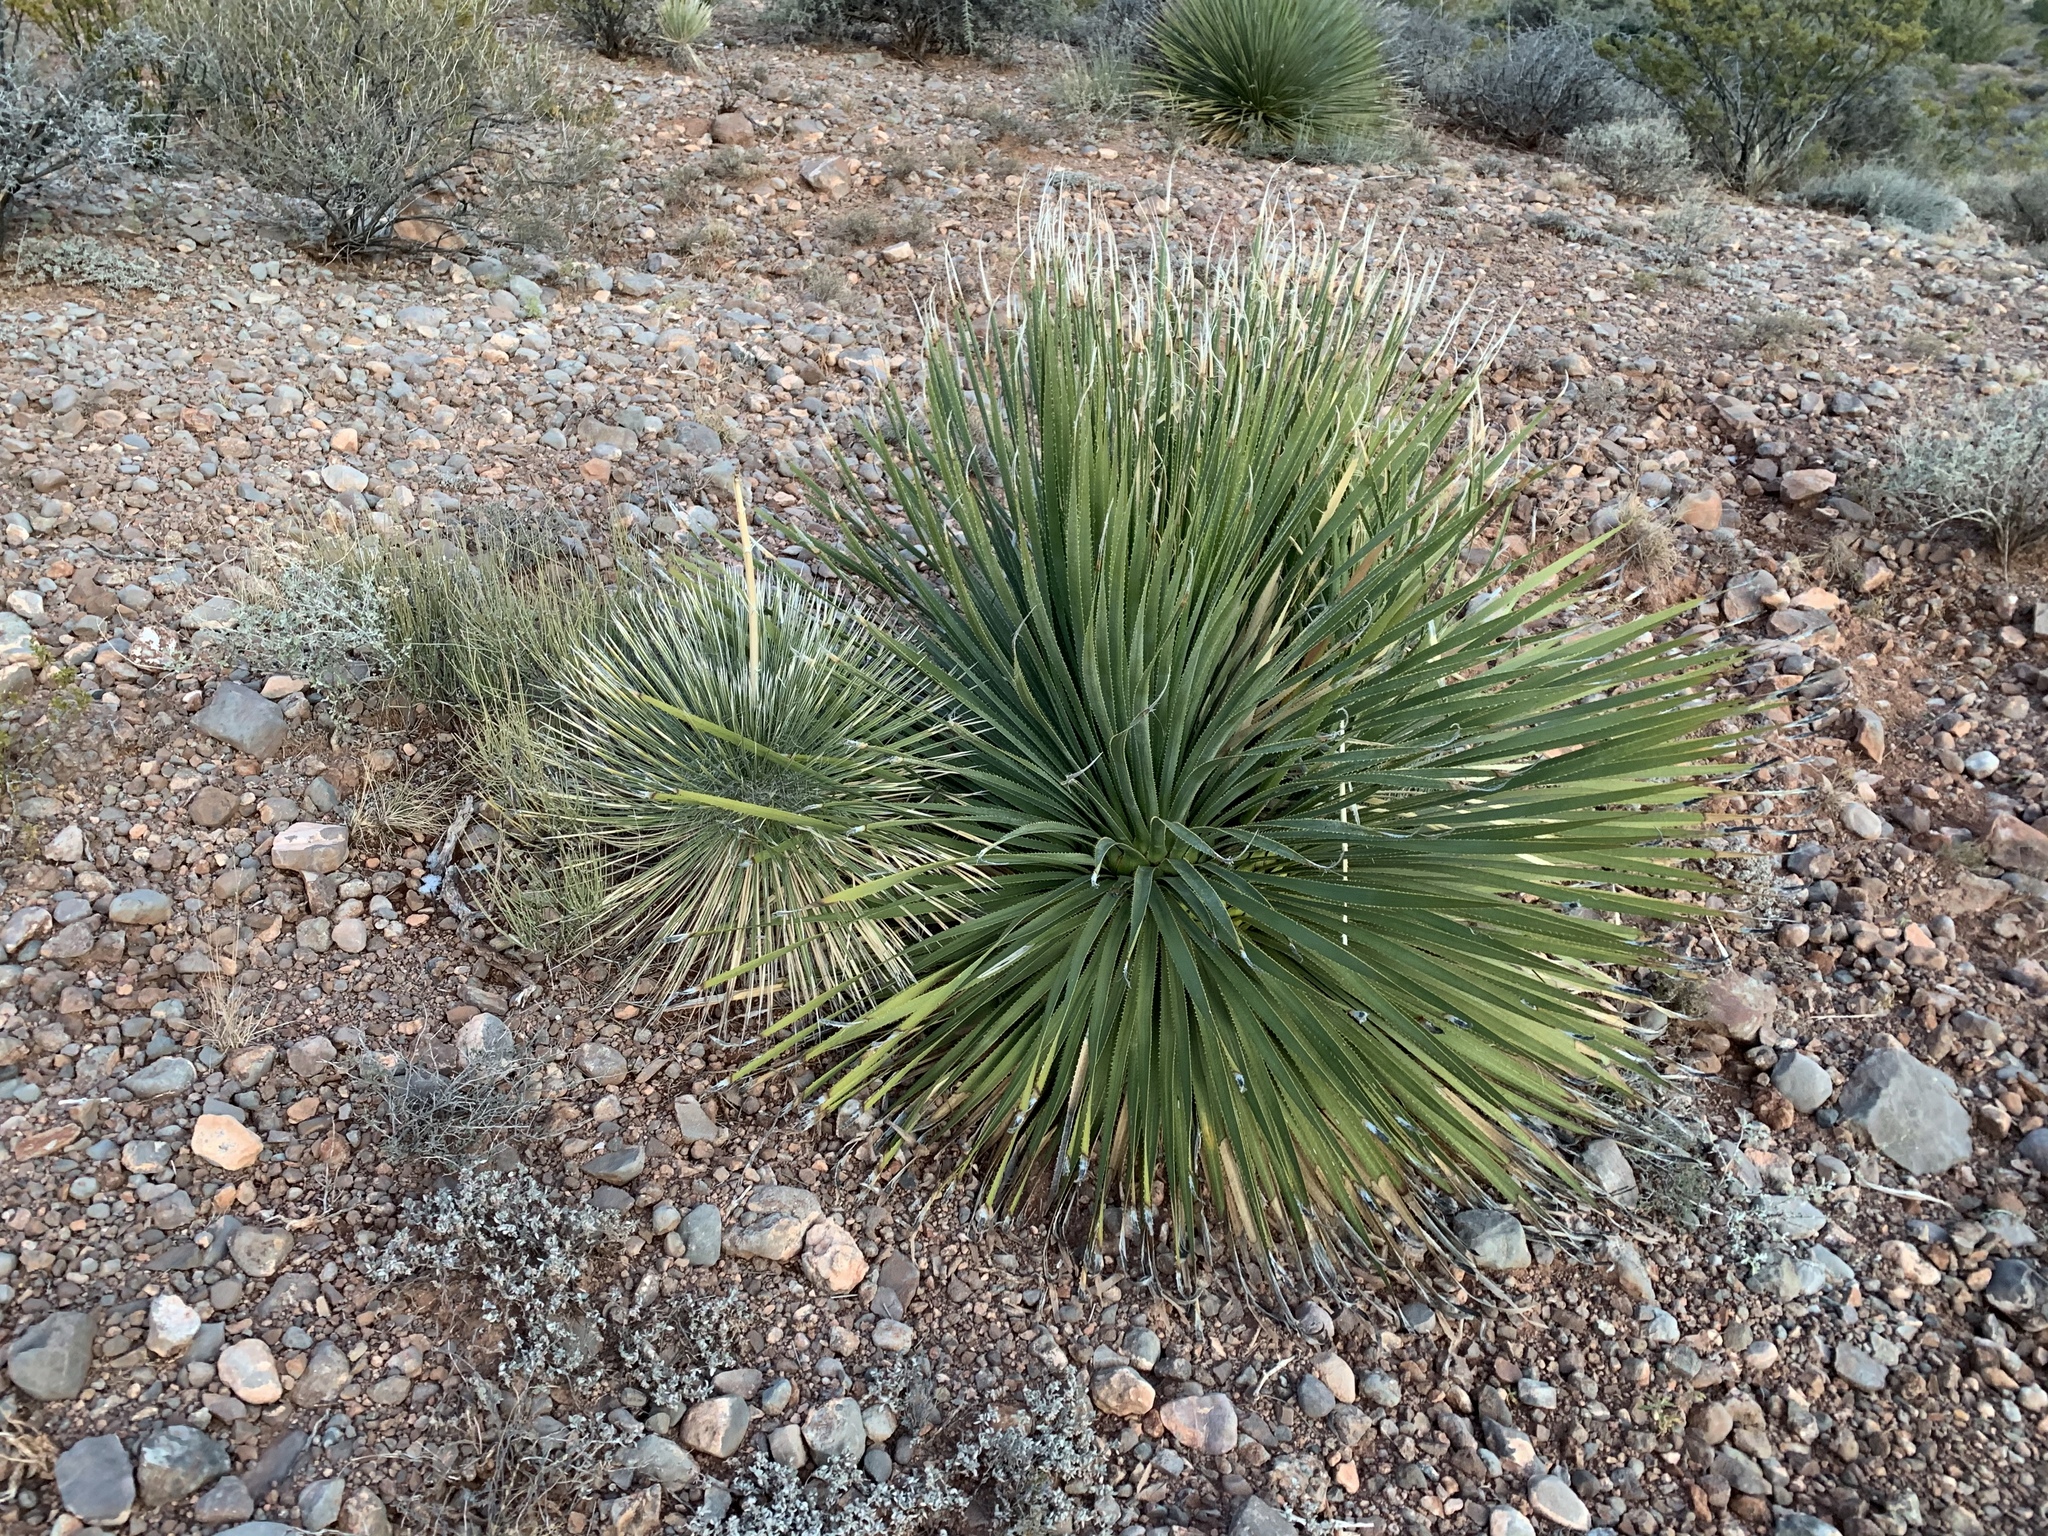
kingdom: Plantae
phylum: Tracheophyta
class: Liliopsida
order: Asparagales
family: Asparagaceae
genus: Dasylirion
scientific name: Dasylirion wheeleri
